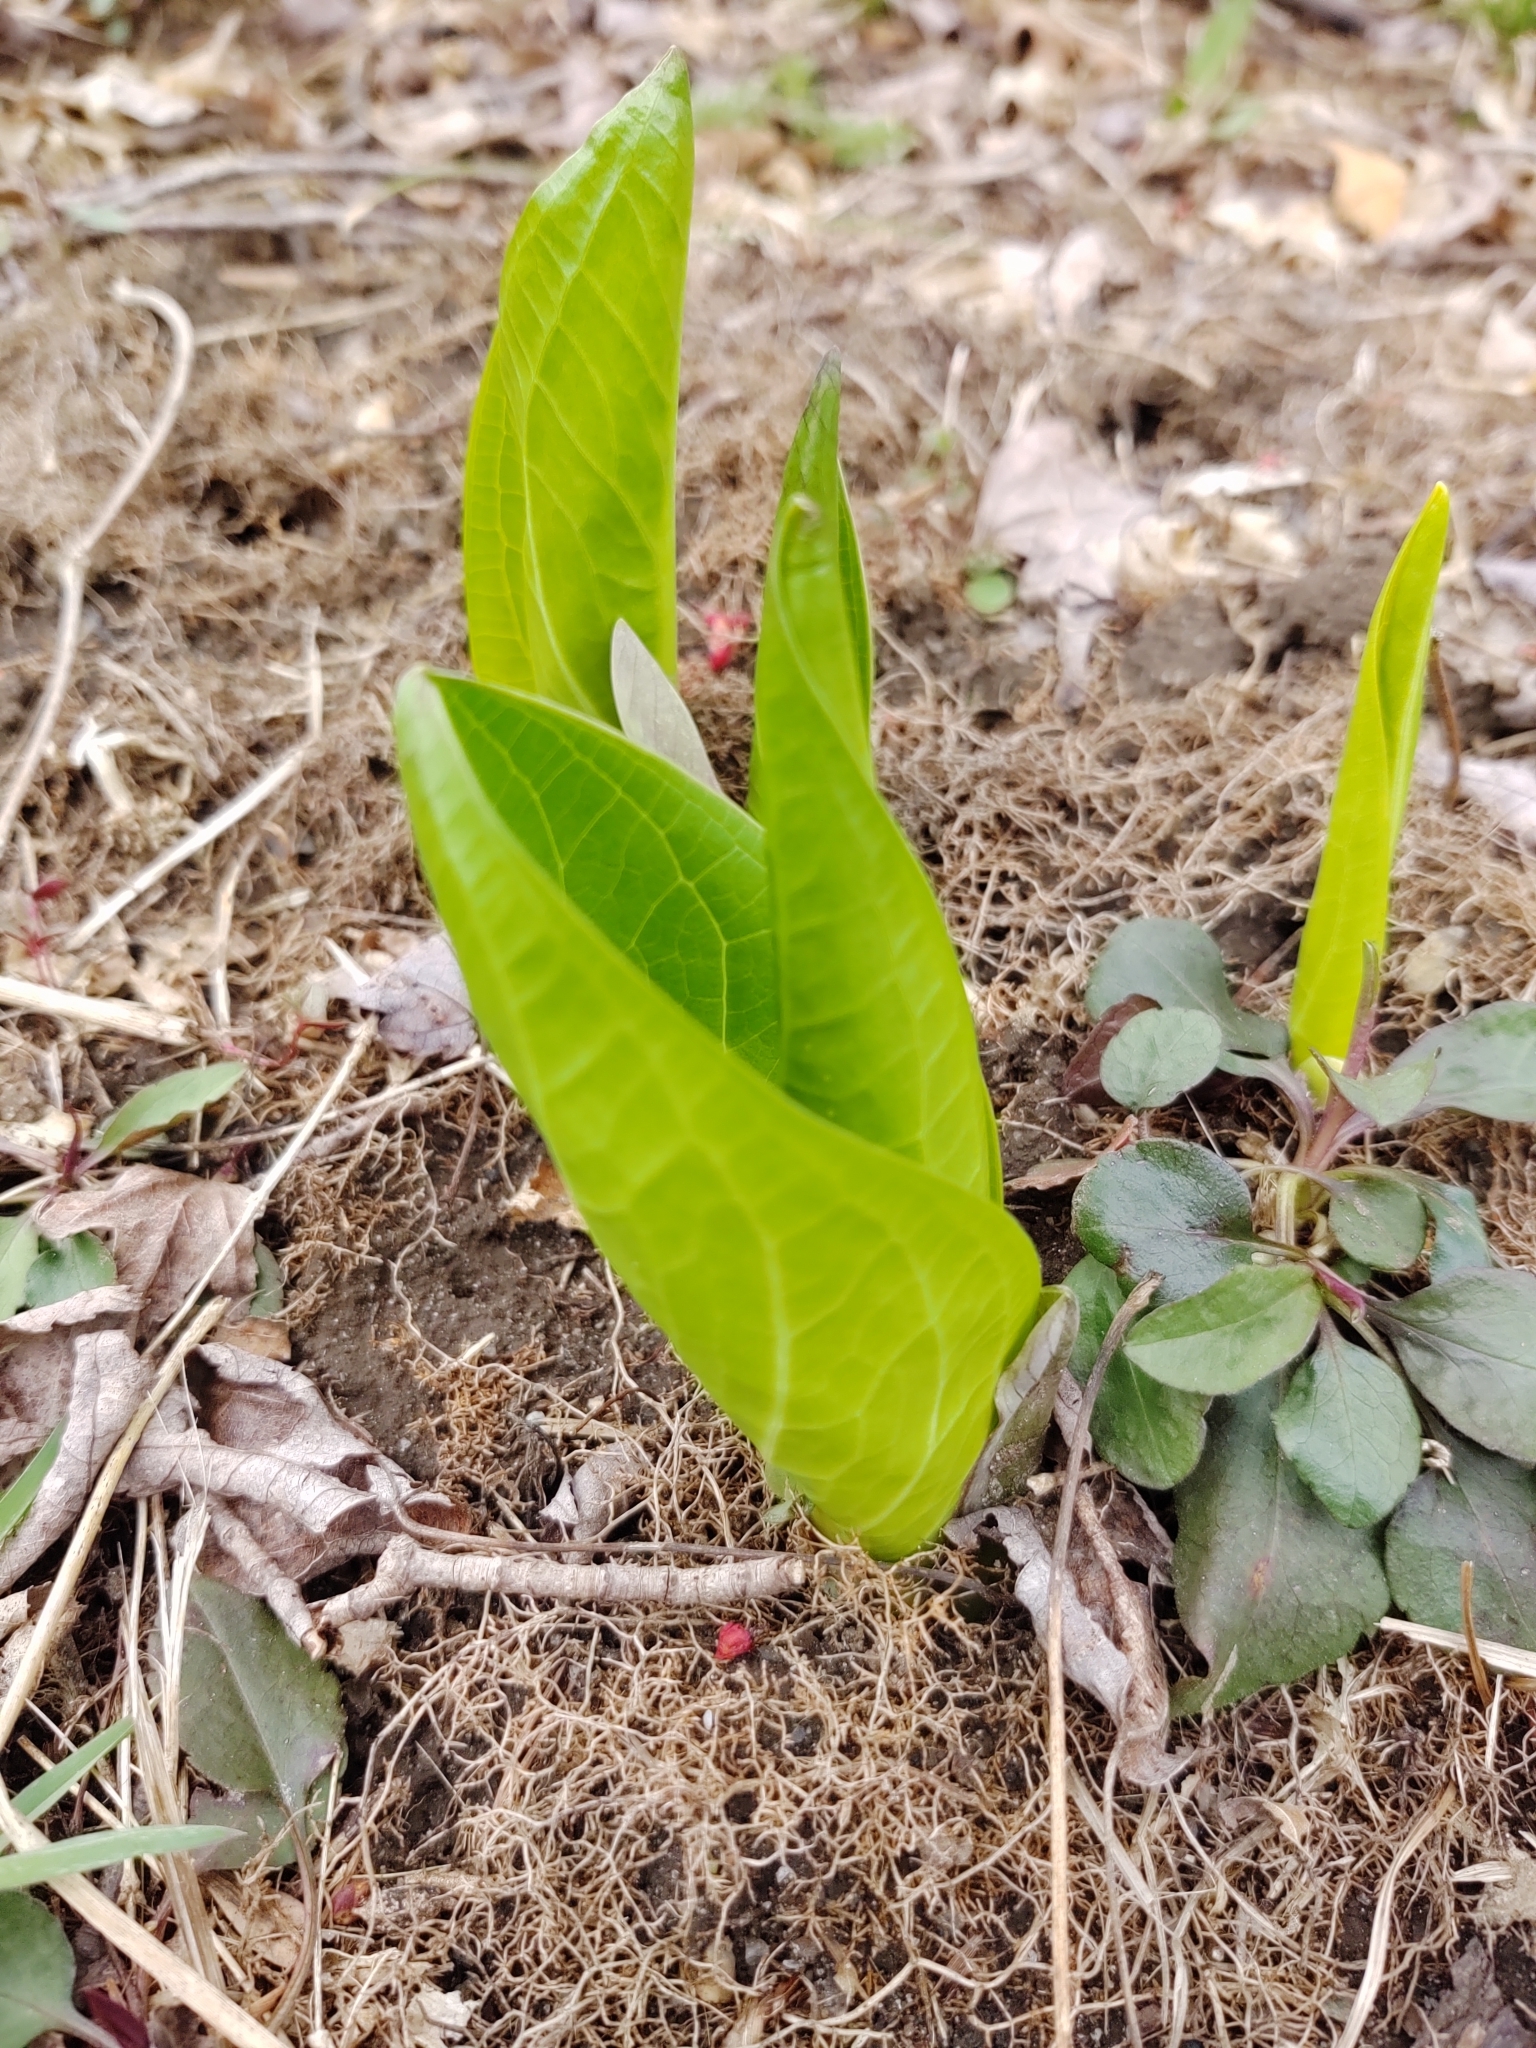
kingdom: Plantae
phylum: Tracheophyta
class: Liliopsida
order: Alismatales
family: Araceae
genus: Symplocarpus
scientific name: Symplocarpus foetidus
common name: Eastern skunk cabbage
